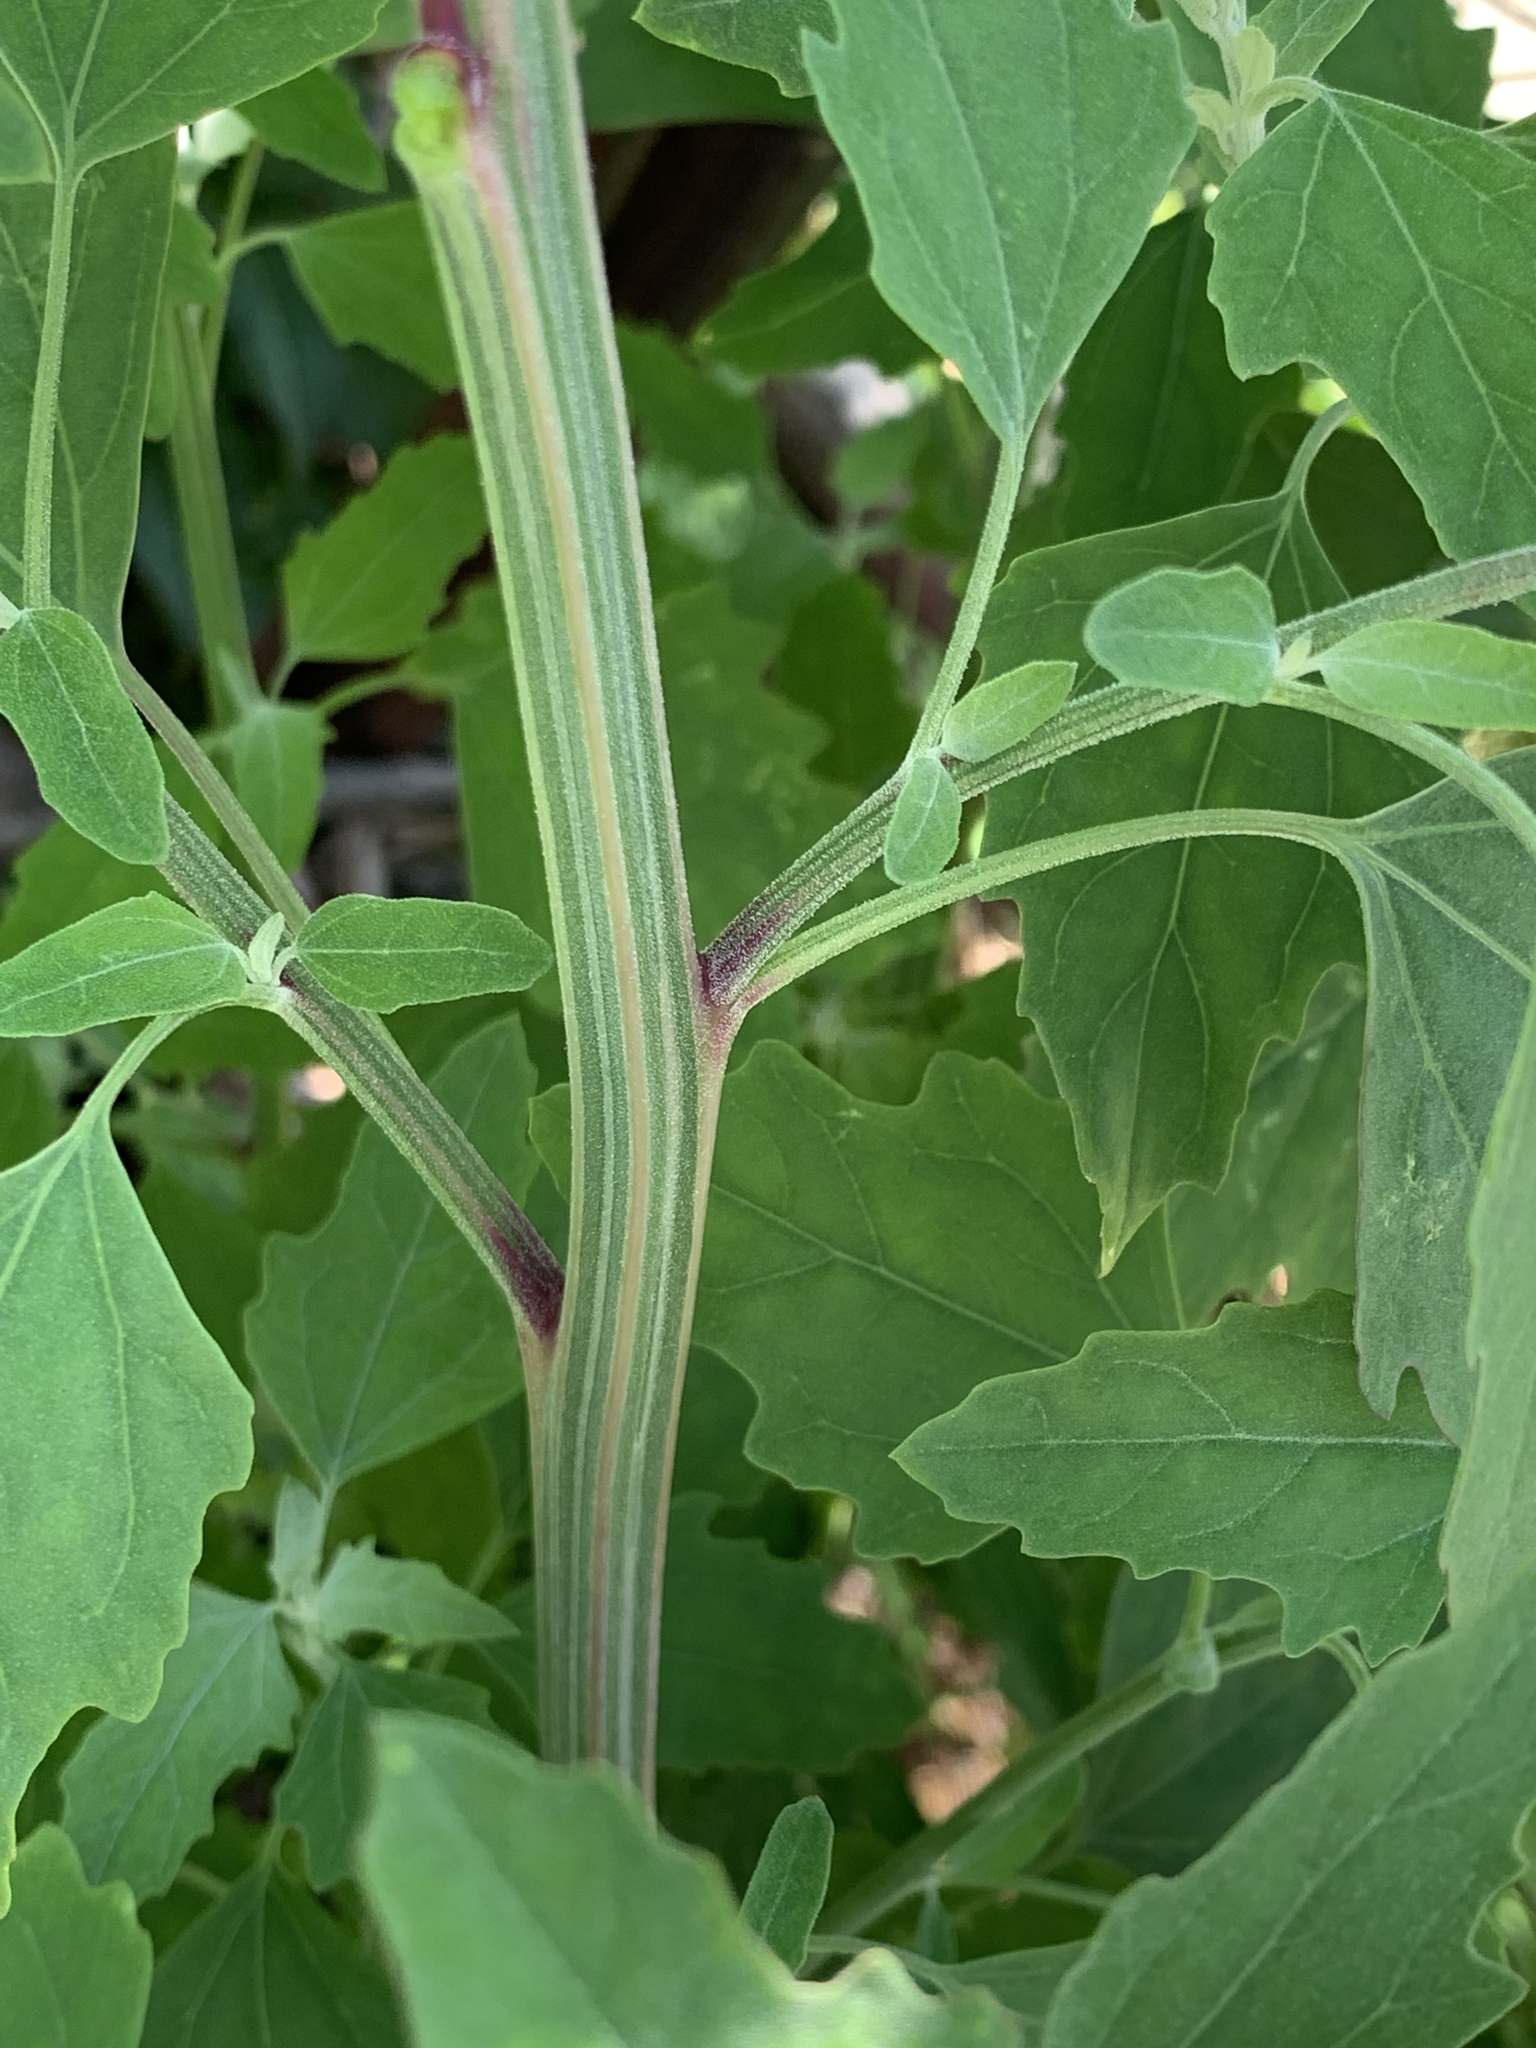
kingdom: Plantae
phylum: Tracheophyta
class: Magnoliopsida
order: Caryophyllales
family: Amaranthaceae
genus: Chenopodium
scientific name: Chenopodium album
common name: Fat-hen
